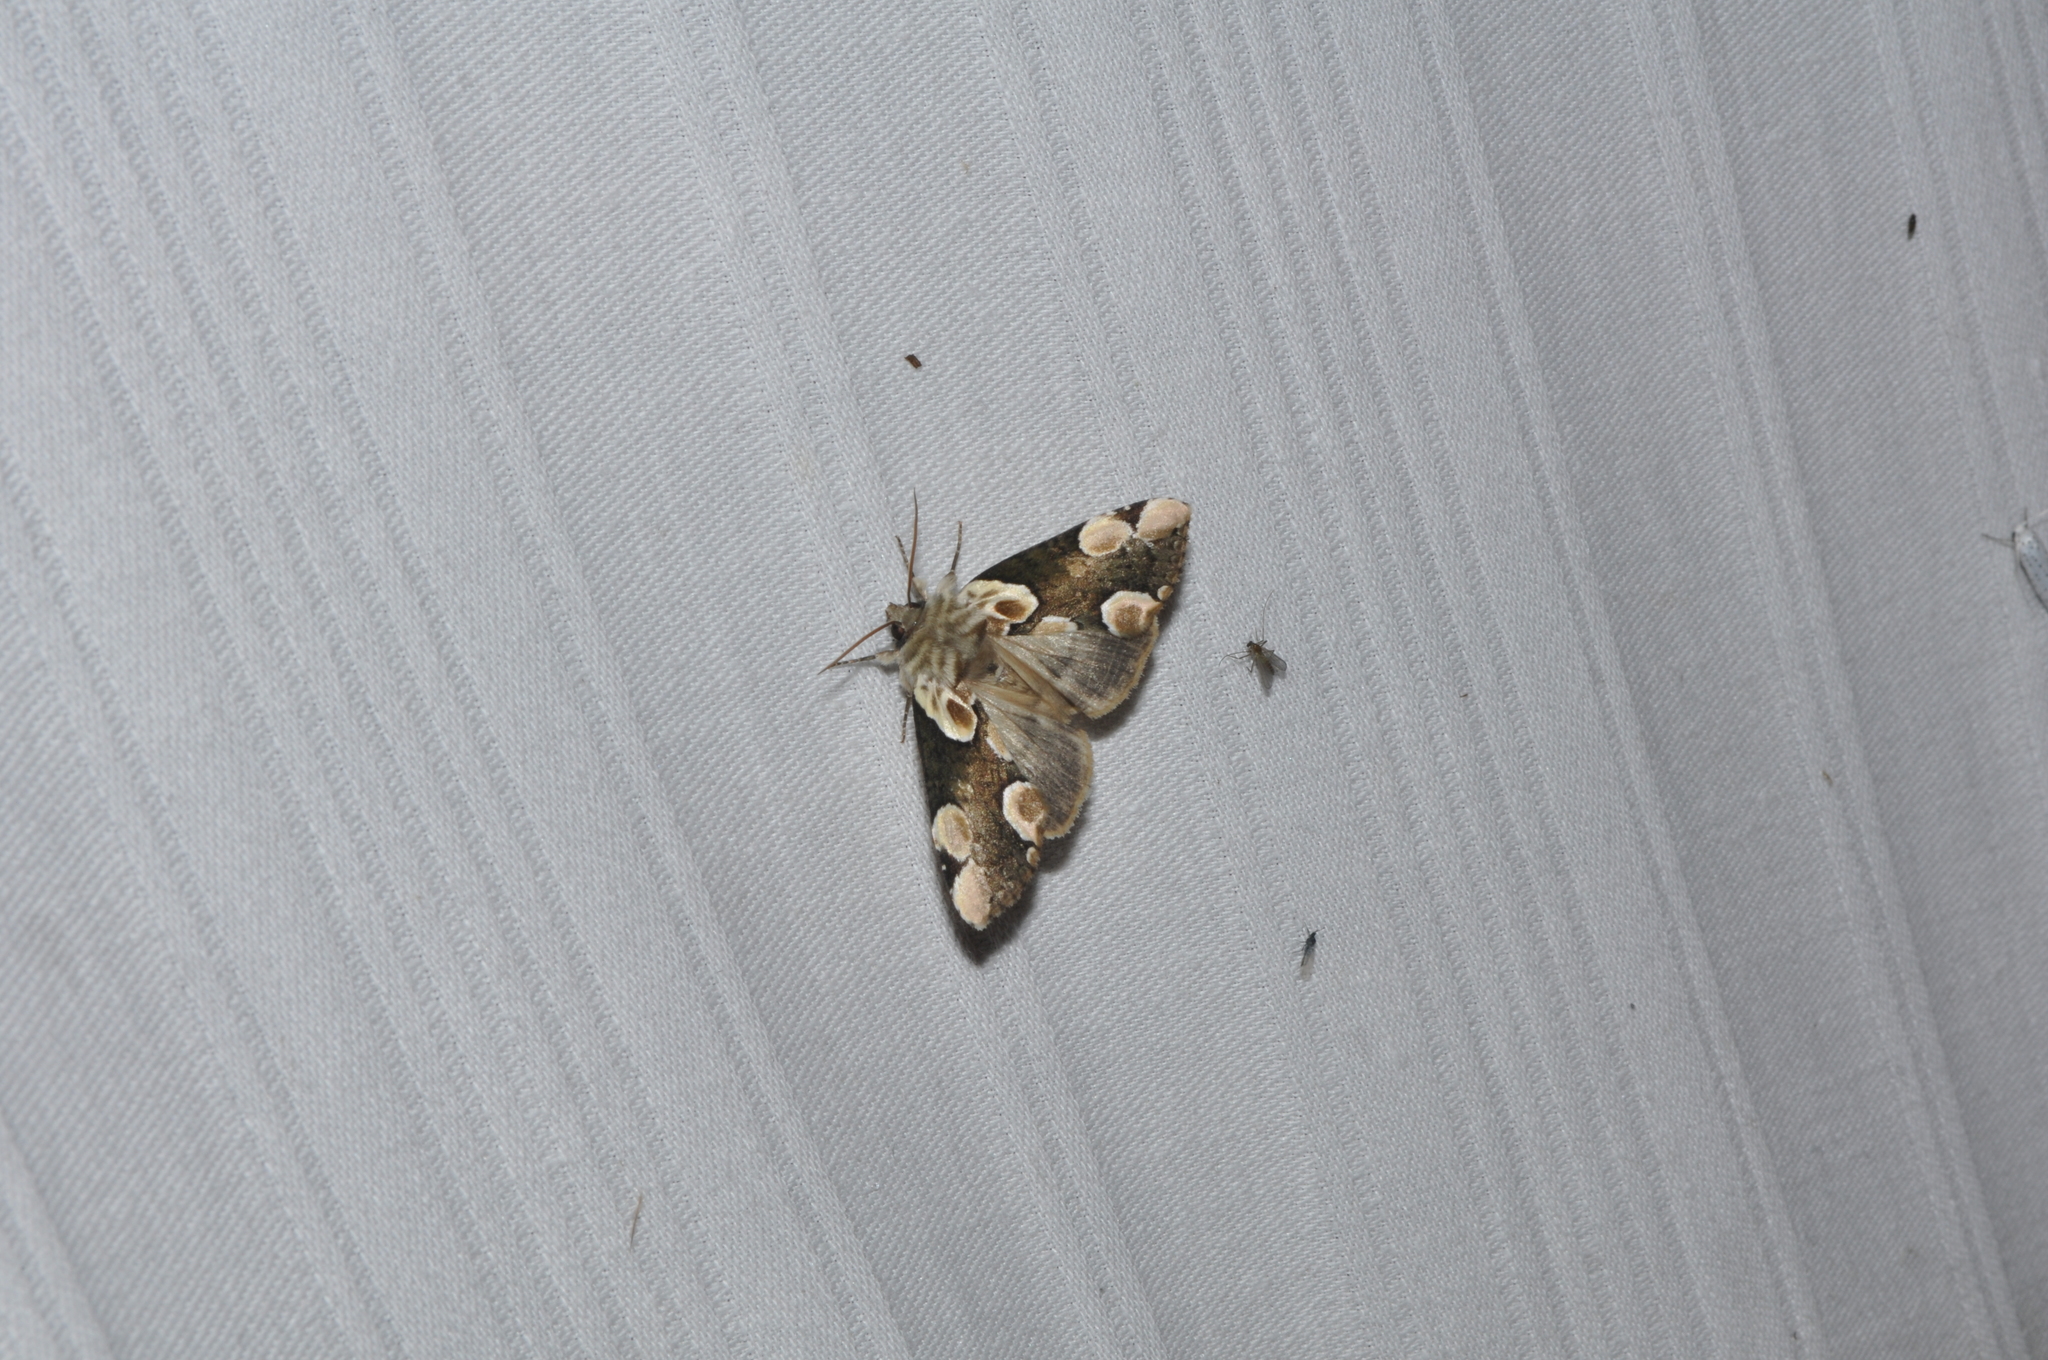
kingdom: Animalia
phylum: Arthropoda
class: Insecta
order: Lepidoptera
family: Drepanidae
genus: Thyatira
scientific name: Thyatira batis
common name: Peach blossom
